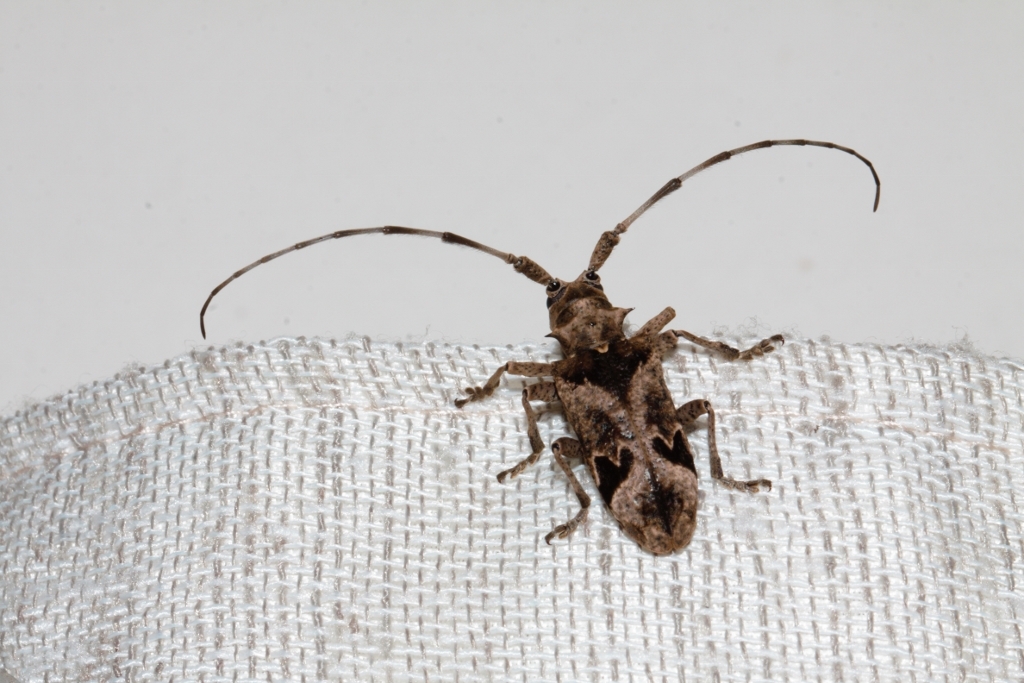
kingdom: Animalia
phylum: Arthropoda
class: Insecta
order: Coleoptera
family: Cerambycidae
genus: Monochamus
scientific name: Monochamus spectabilis
